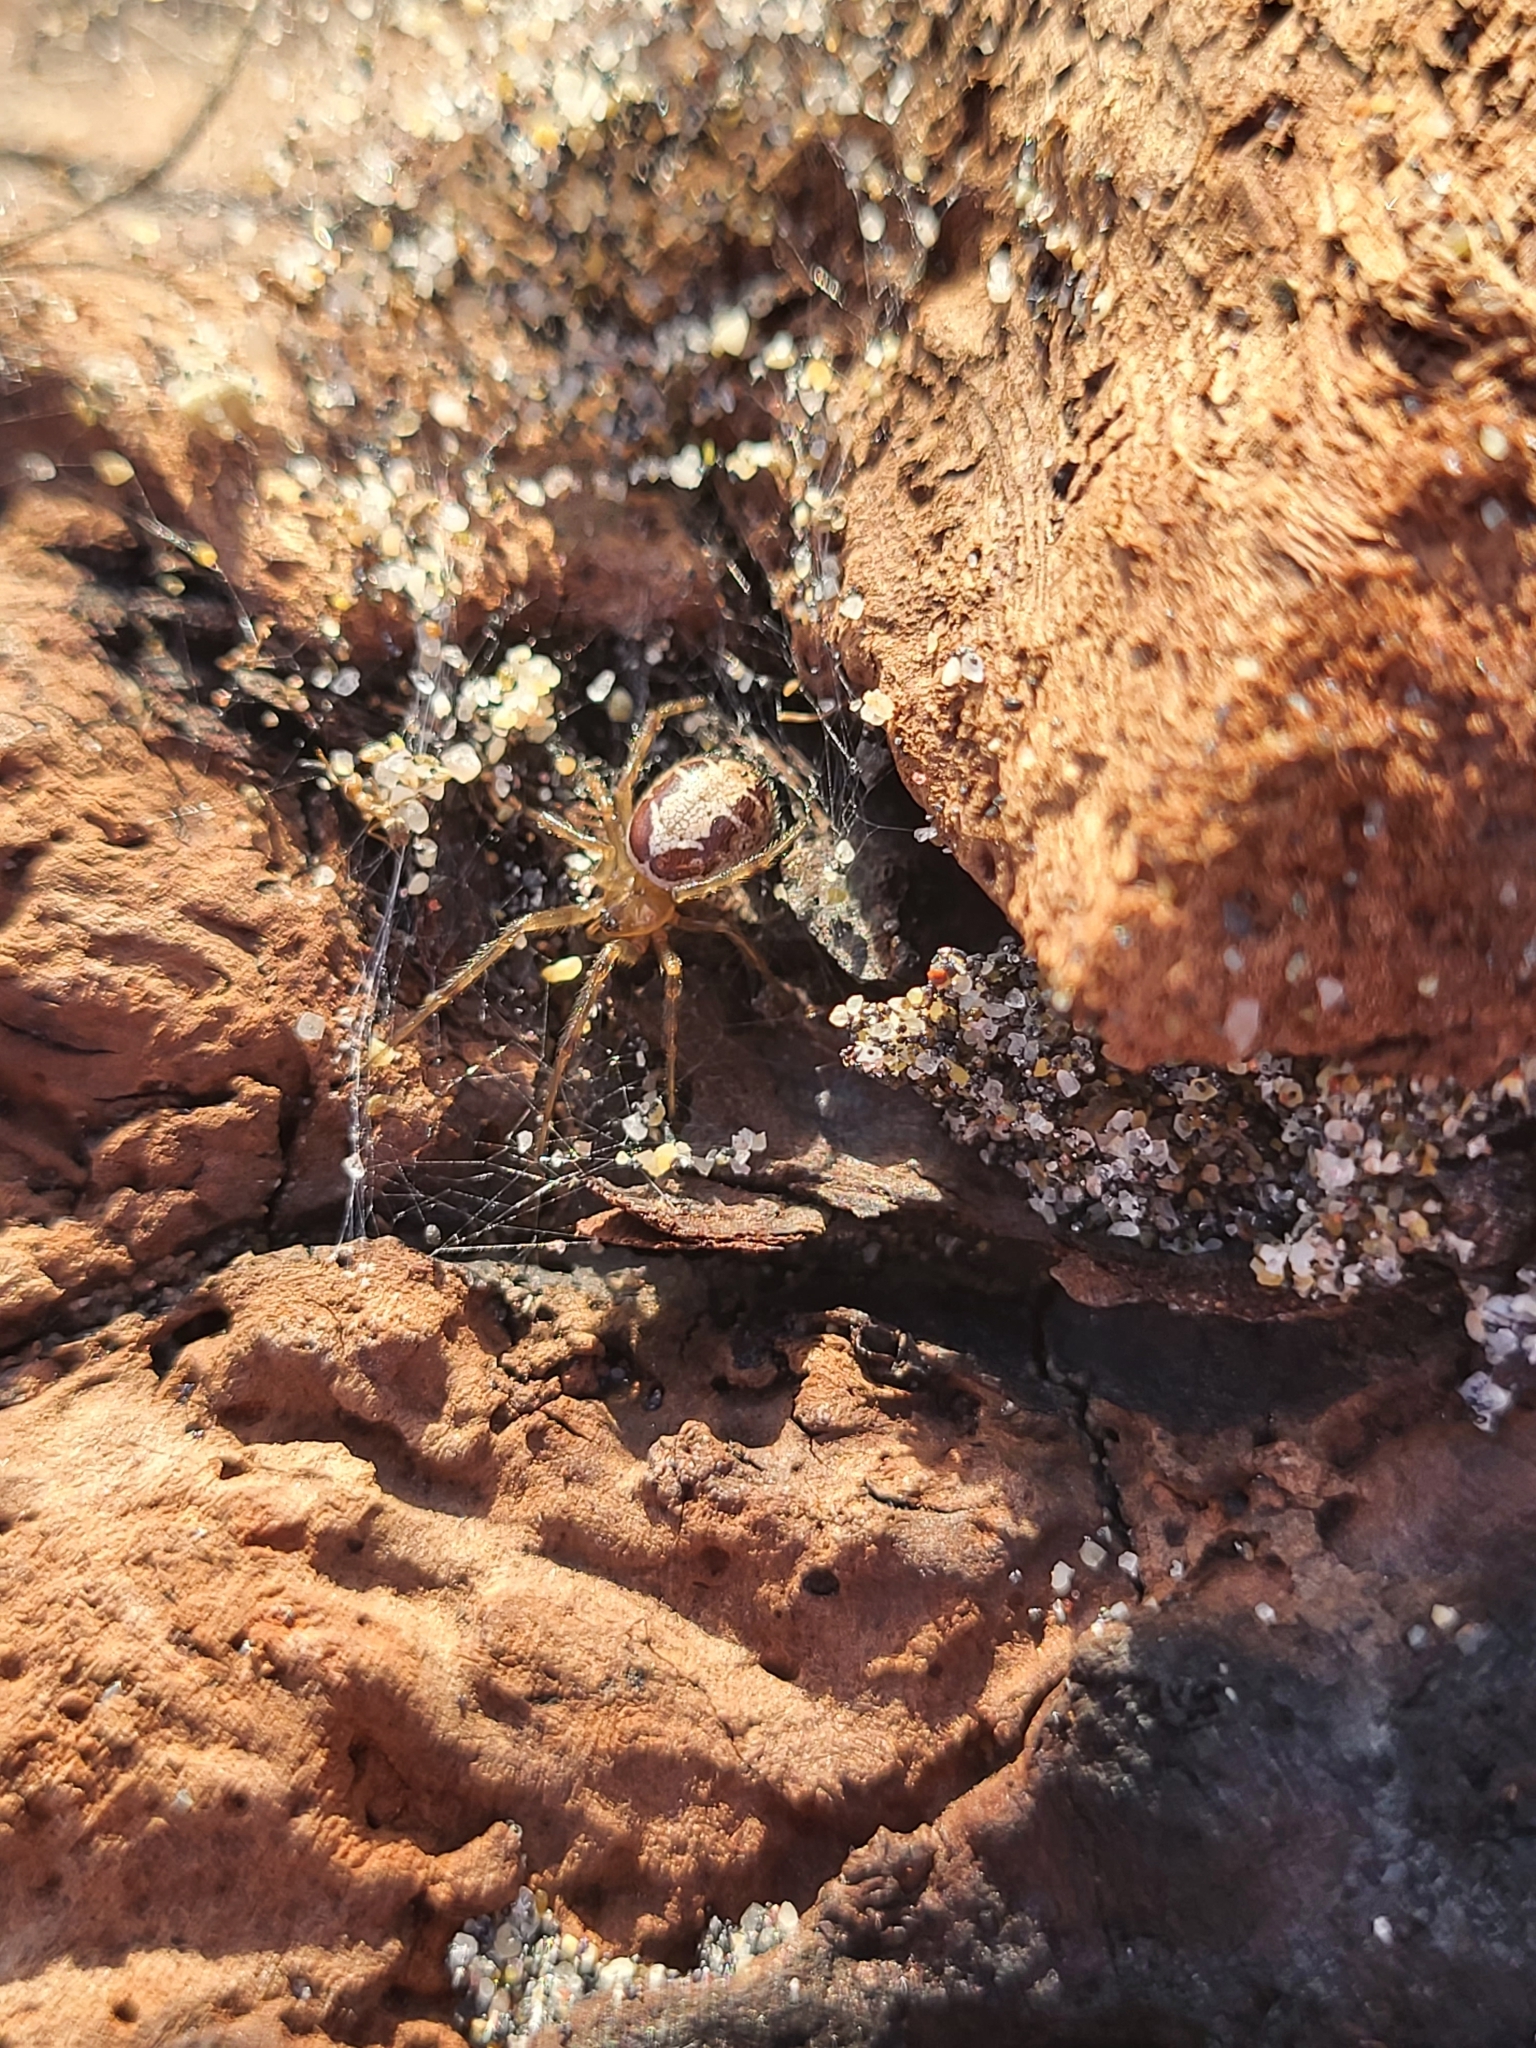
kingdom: Animalia
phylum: Arthropoda
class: Arachnida
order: Araneae
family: Theridiidae
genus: Steatoda
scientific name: Steatoda nobilis
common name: Cobweb weaver
